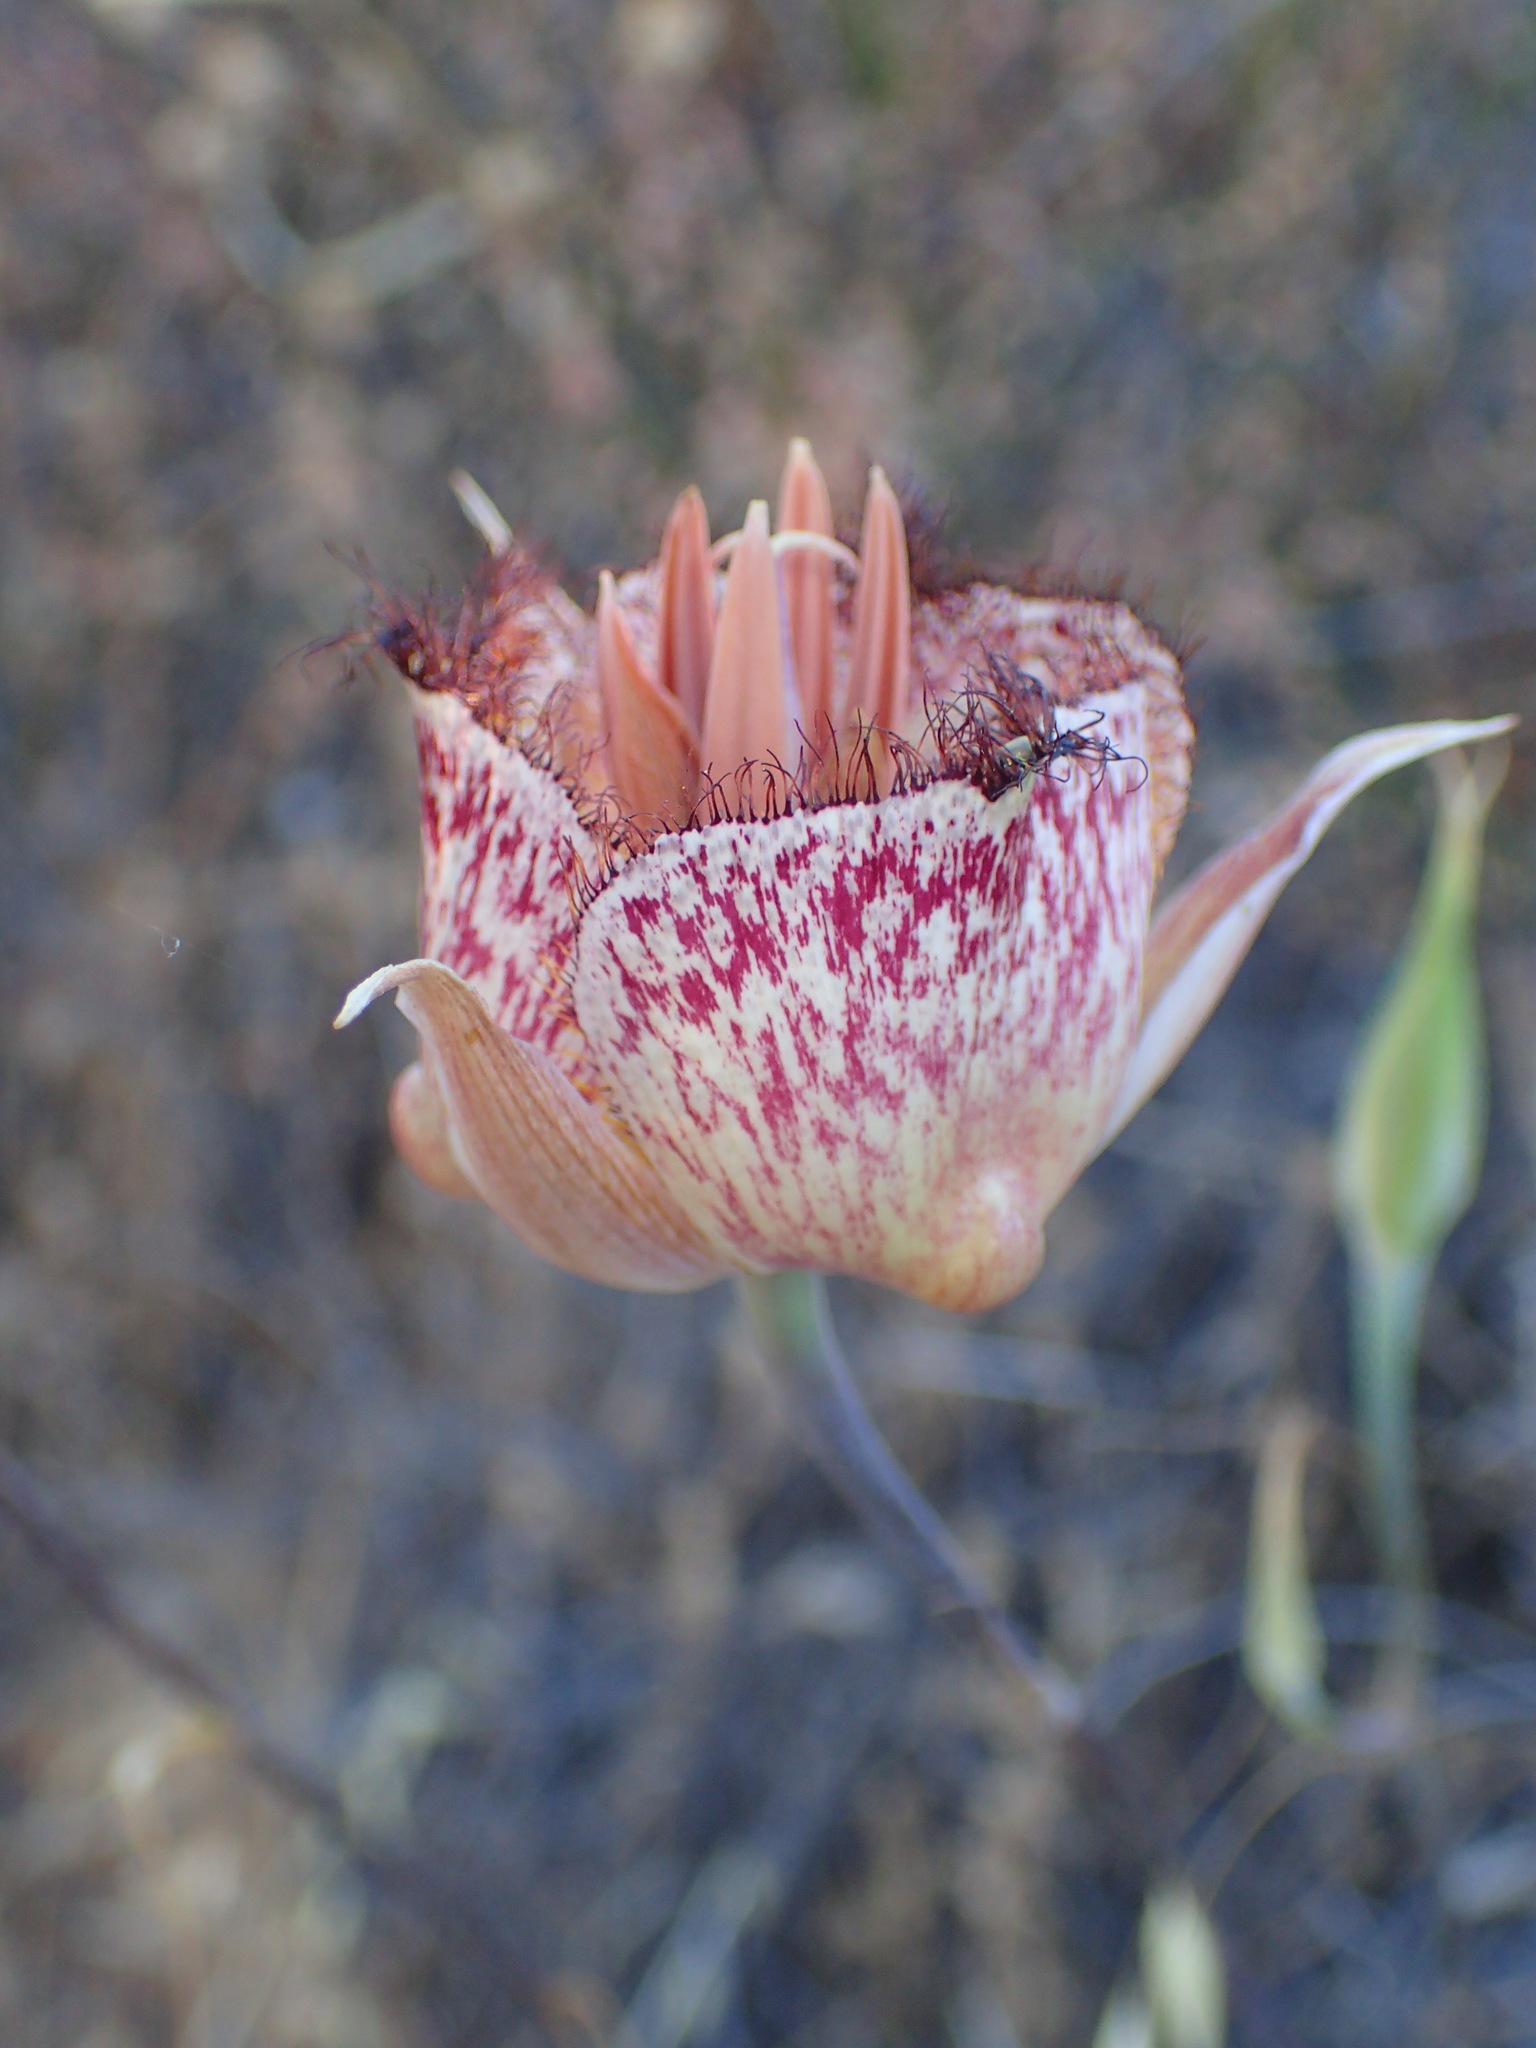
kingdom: Plantae
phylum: Tracheophyta
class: Liliopsida
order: Liliales
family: Liliaceae
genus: Calochortus
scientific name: Calochortus fimbriatus
